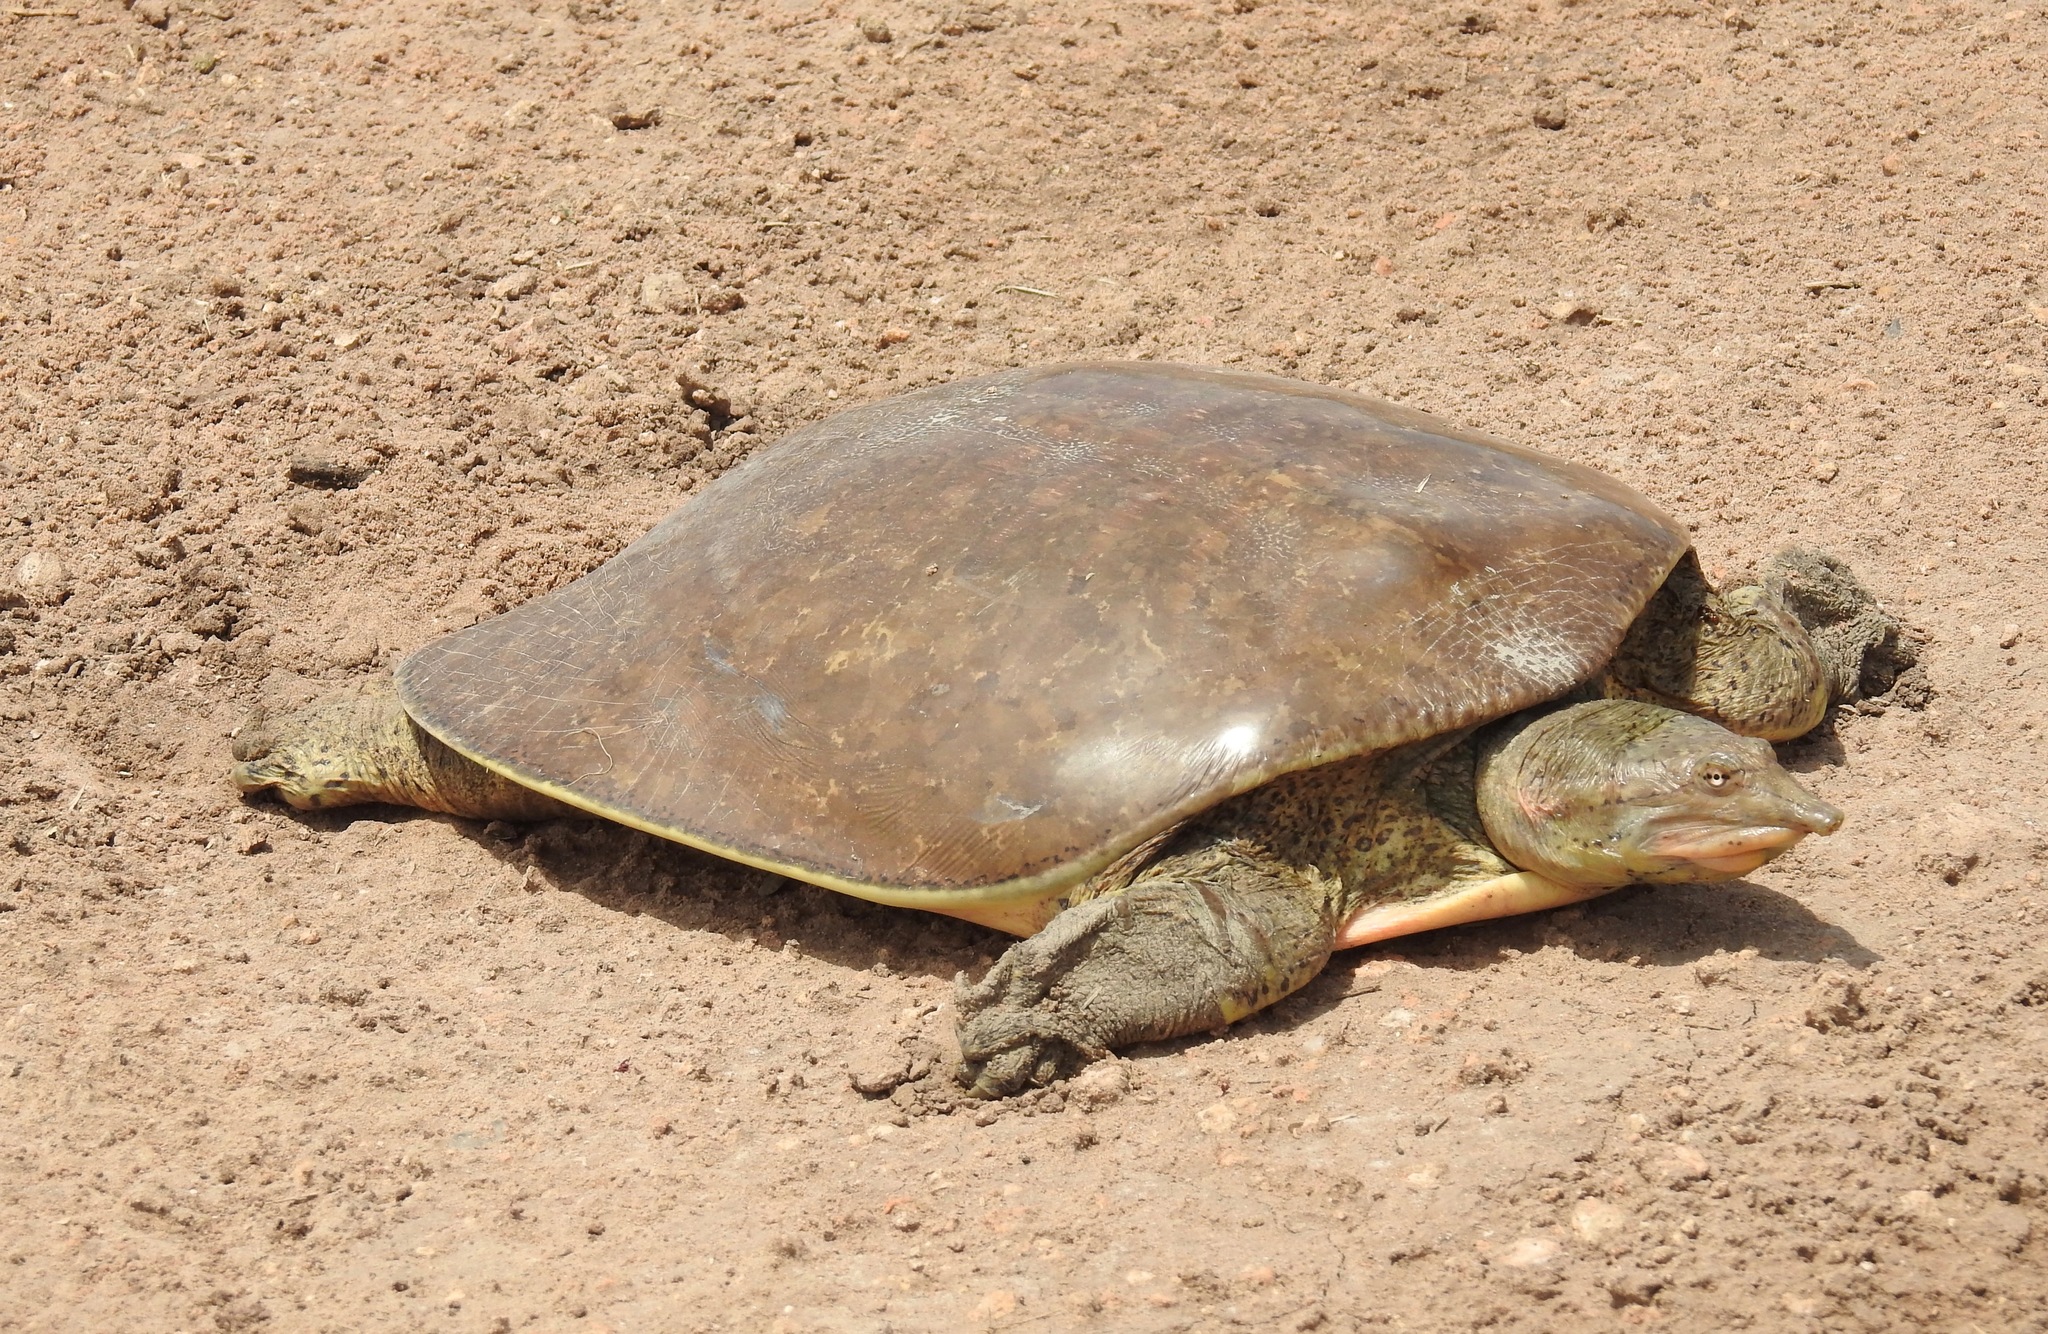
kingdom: Animalia
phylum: Chordata
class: Testudines
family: Trionychidae
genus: Apalone
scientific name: Apalone spinifera
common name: Spiny softshell turtle
